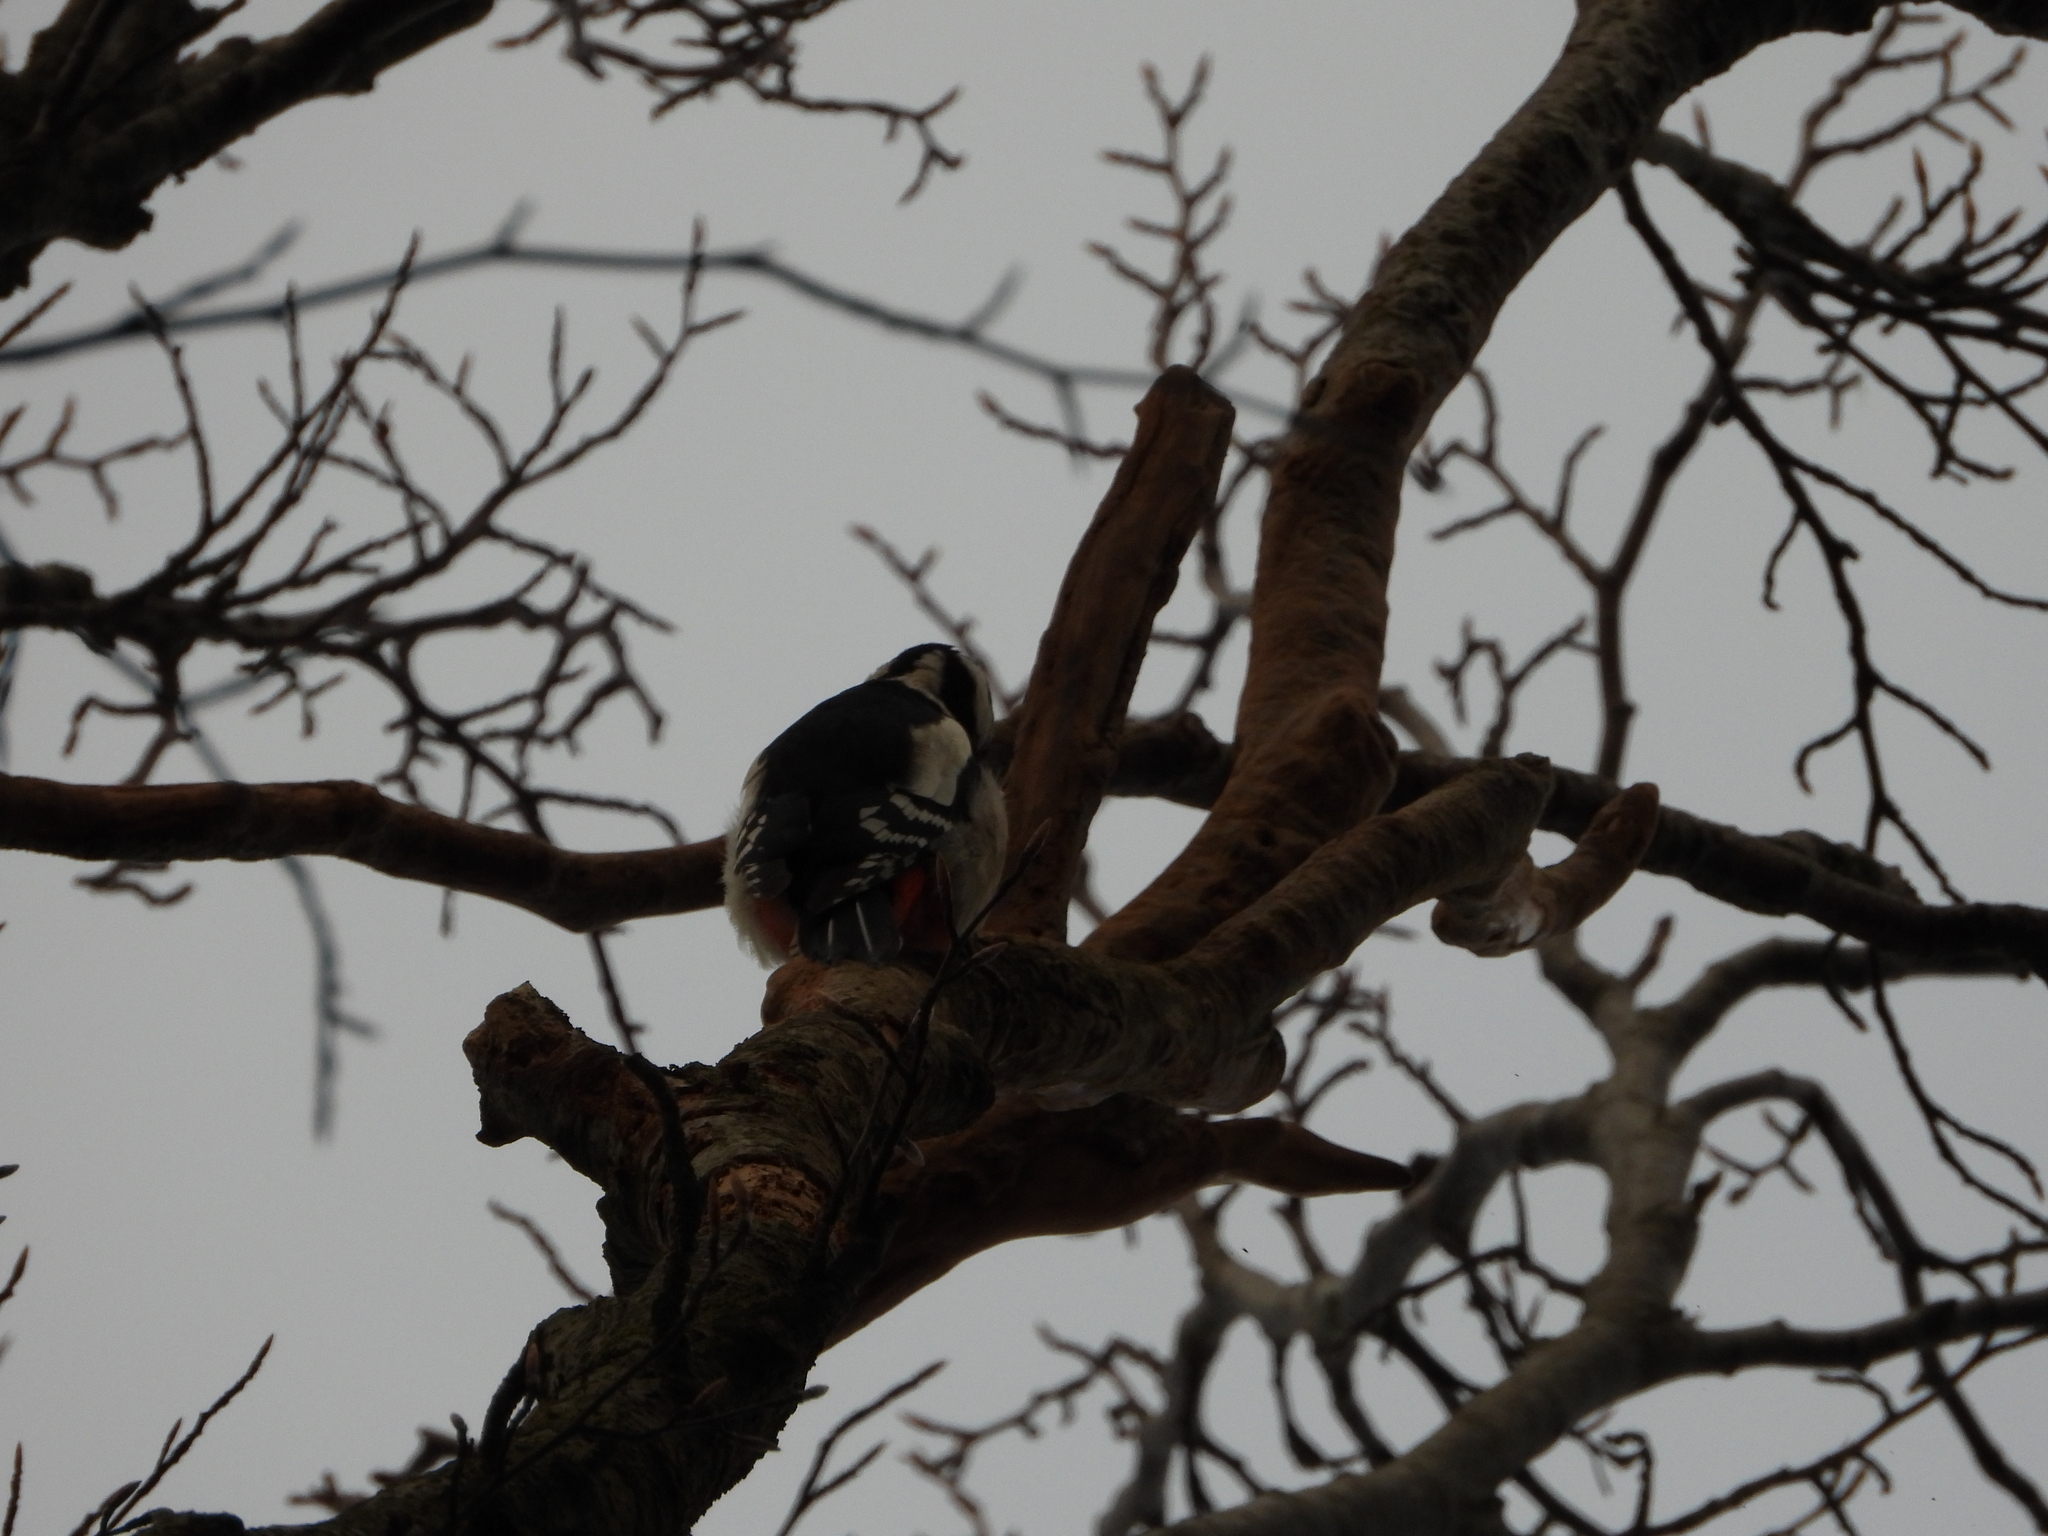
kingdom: Animalia
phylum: Chordata
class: Aves
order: Piciformes
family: Picidae
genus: Dendrocopos
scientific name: Dendrocopos major
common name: Great spotted woodpecker
